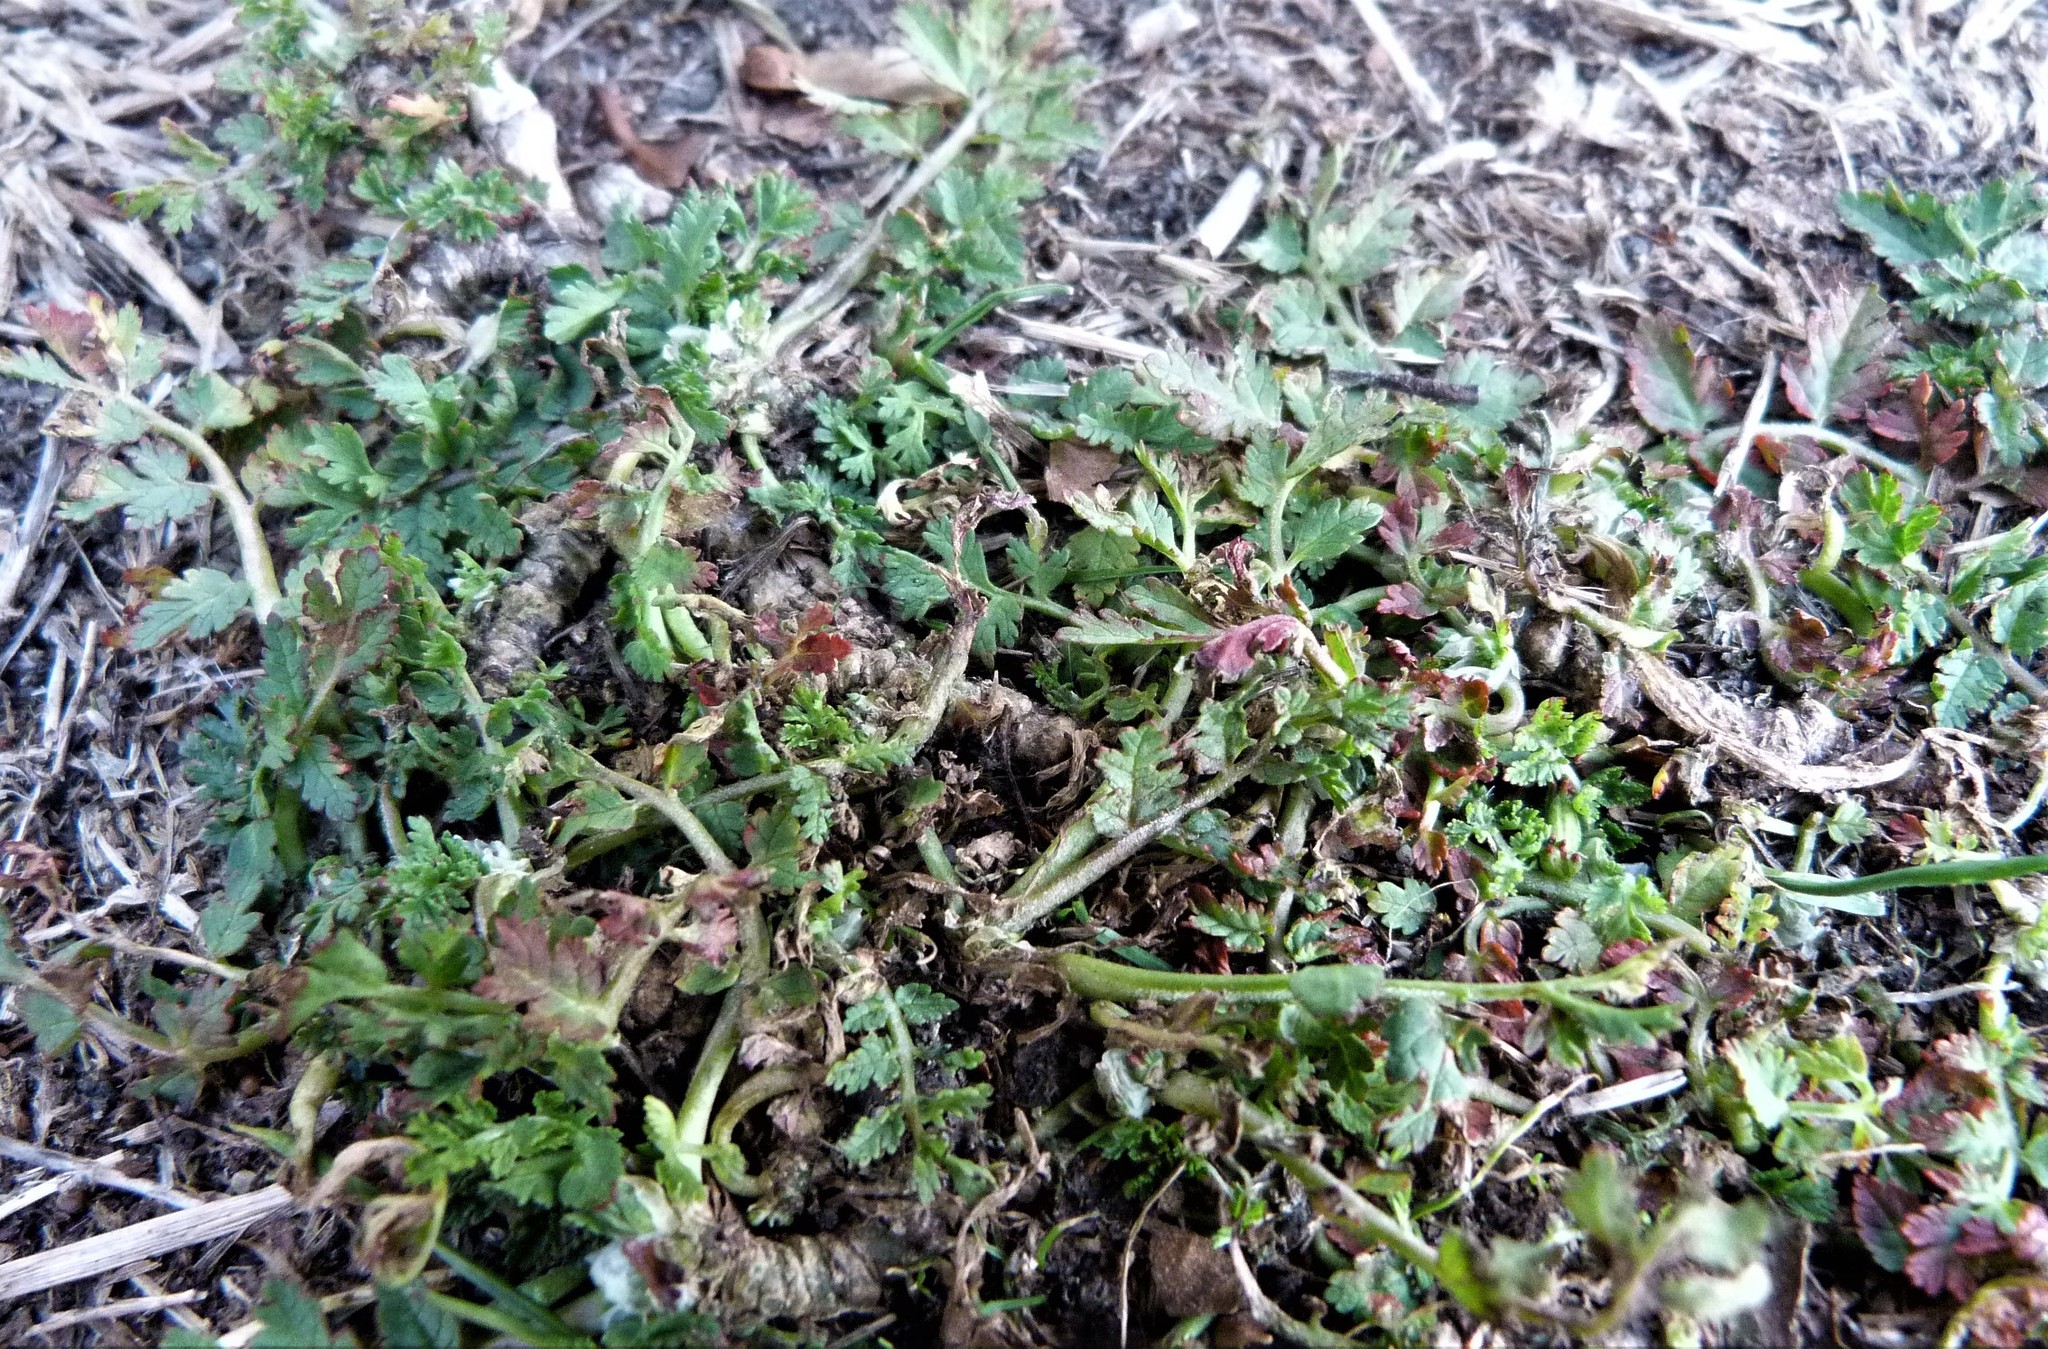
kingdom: Plantae
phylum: Tracheophyta
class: Magnoliopsida
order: Geraniales
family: Geraniaceae
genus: Erodium
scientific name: Erodium cicutarium
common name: Common stork's-bill
